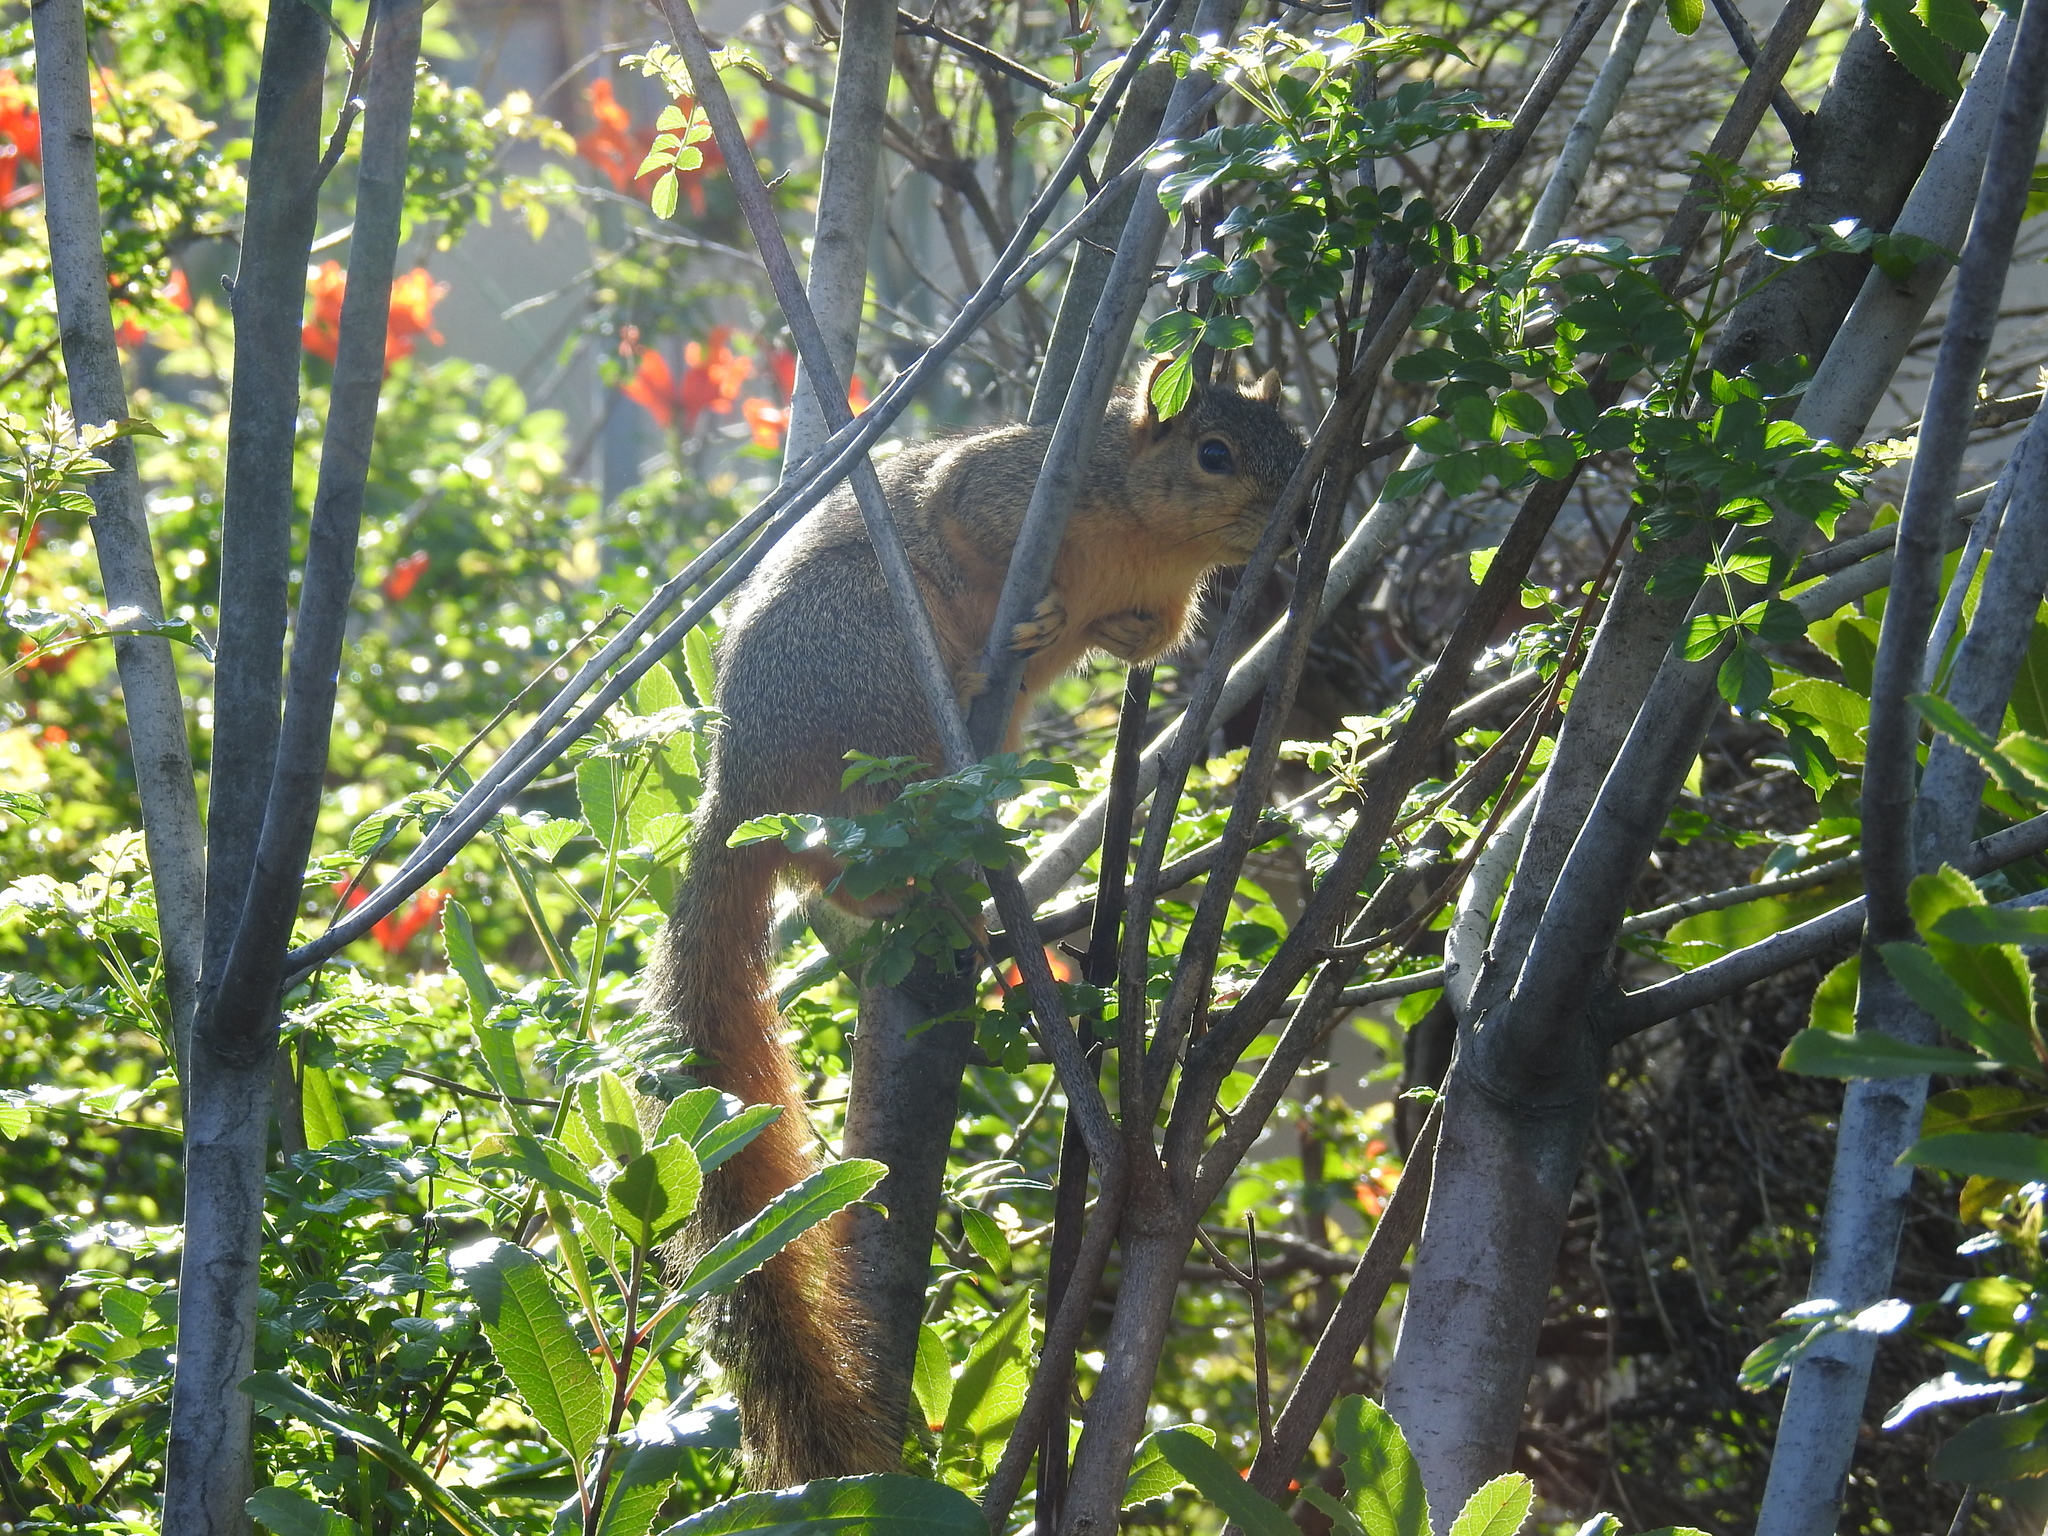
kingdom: Animalia
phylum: Chordata
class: Mammalia
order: Rodentia
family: Sciuridae
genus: Sciurus
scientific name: Sciurus niger
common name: Fox squirrel
